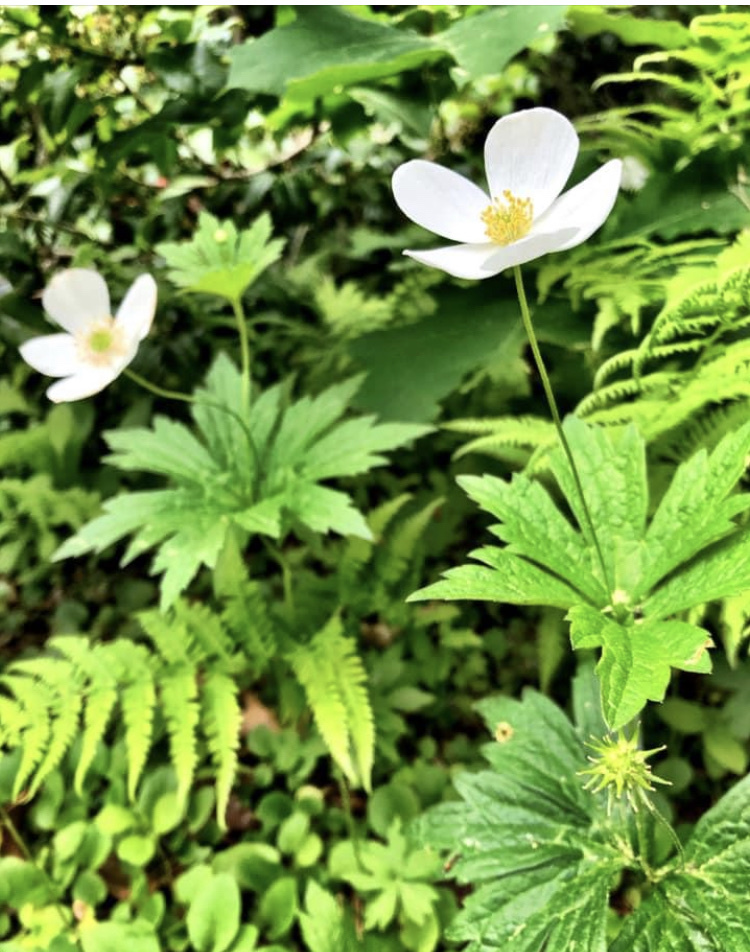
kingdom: Plantae
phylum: Tracheophyta
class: Magnoliopsida
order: Ranunculales
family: Ranunculaceae
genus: Anemonastrum
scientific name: Anemonastrum canadense
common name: Canada anemone
